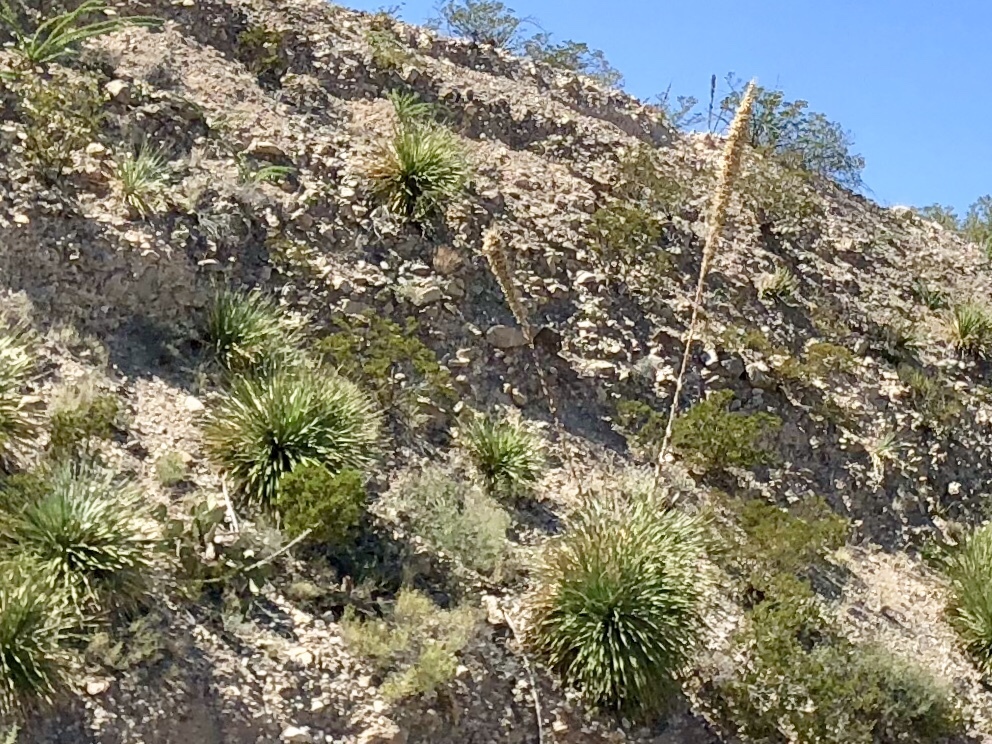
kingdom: Plantae
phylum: Tracheophyta
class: Liliopsida
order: Asparagales
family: Asparagaceae
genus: Dasylirion
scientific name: Dasylirion wheeleri
